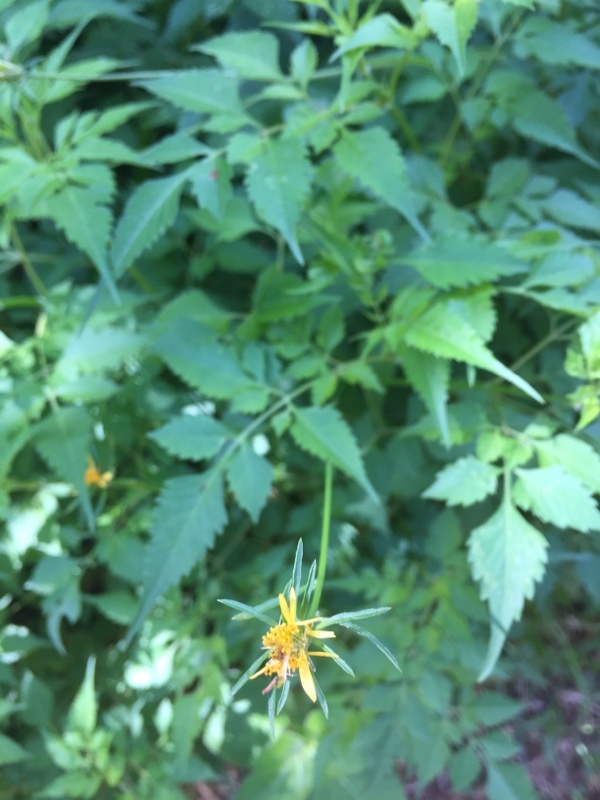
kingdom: Plantae
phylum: Tracheophyta
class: Magnoliopsida
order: Asterales
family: Asteraceae
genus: Bidens
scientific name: Bidens bipinnata
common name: Spanish-needles
